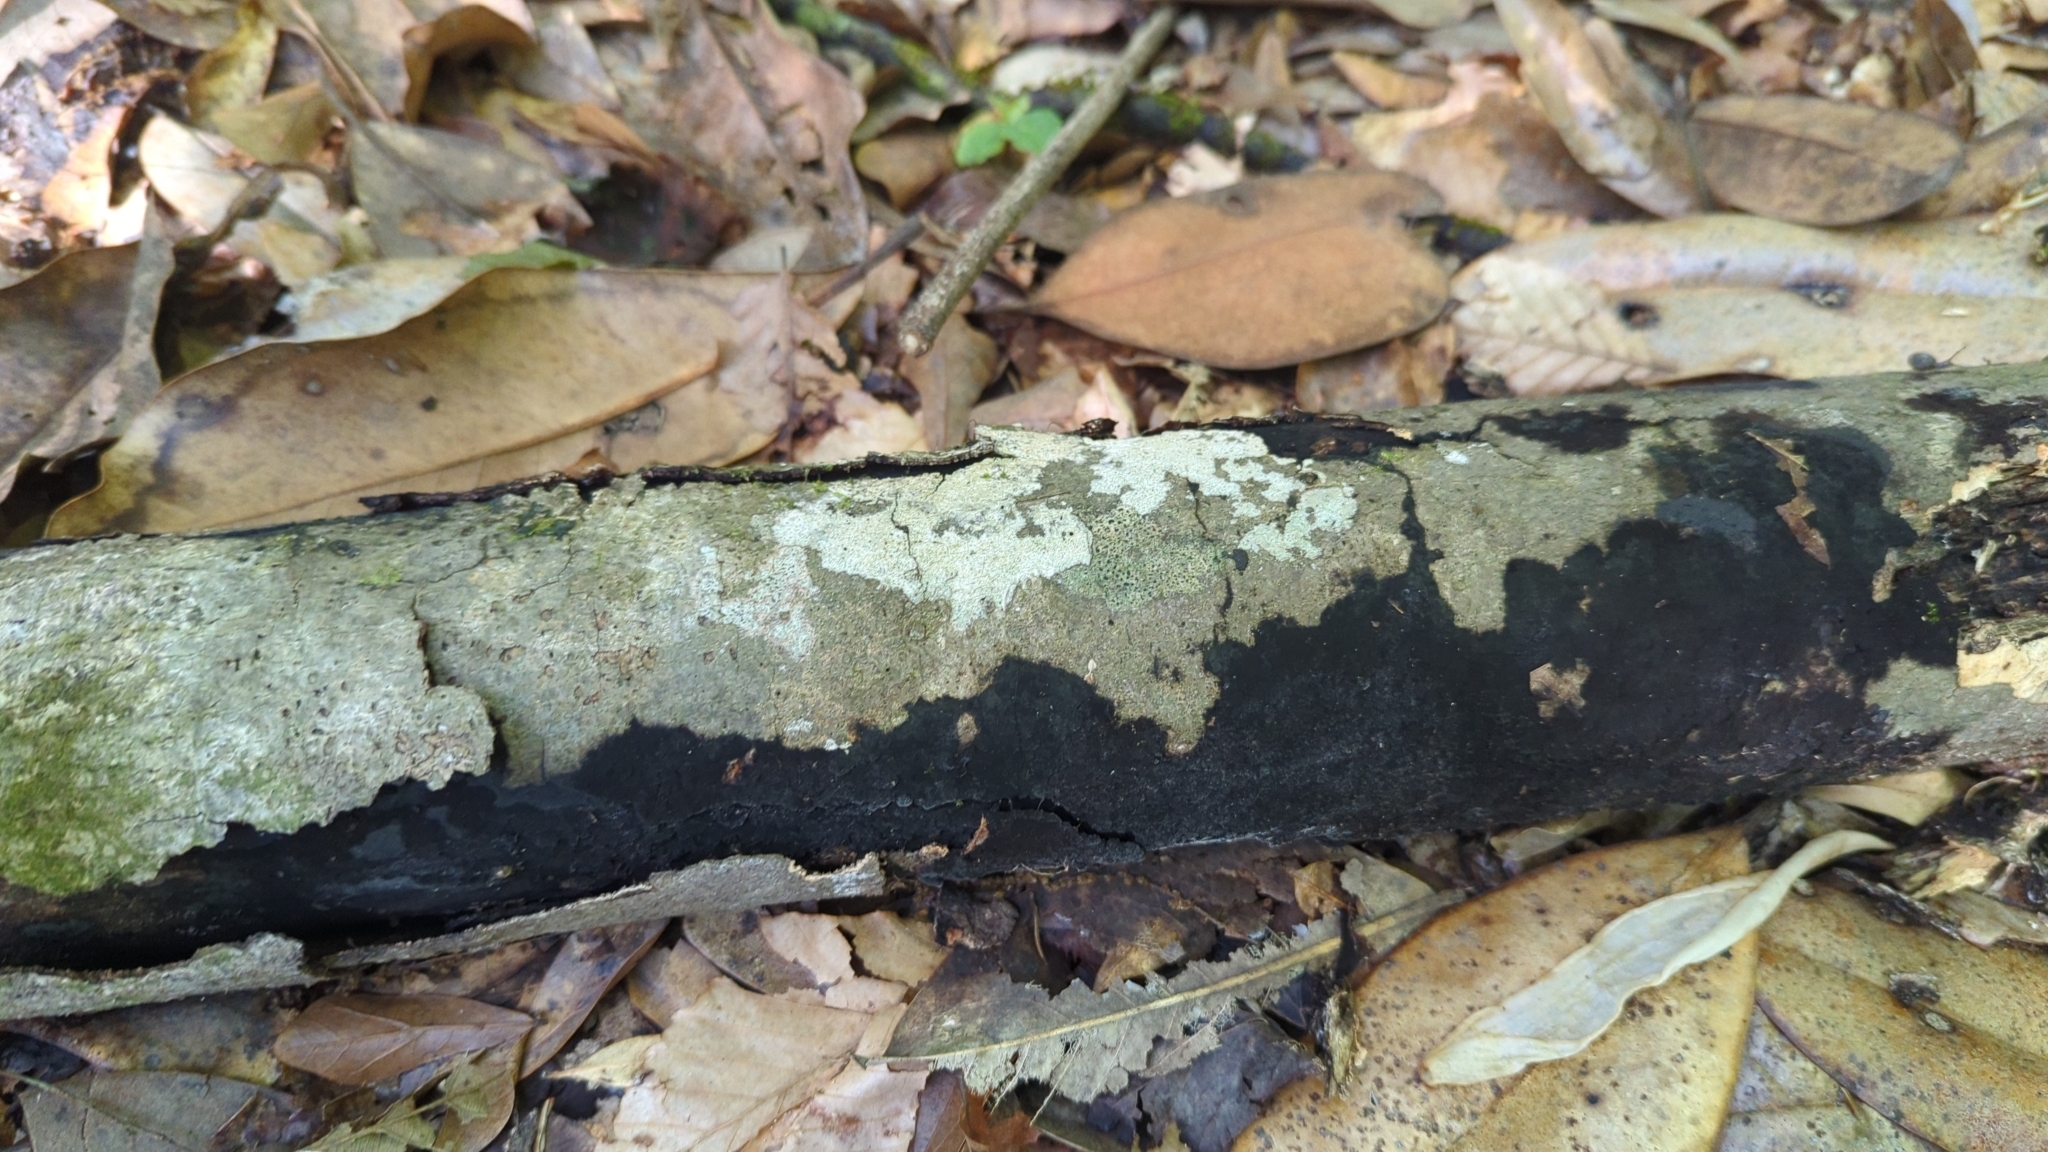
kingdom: Fungi
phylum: Ascomycota
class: Sordariomycetes
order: Xylariales
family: Diatrypaceae
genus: Diatrype
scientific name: Diatrype stigma
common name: Common tarcrust
